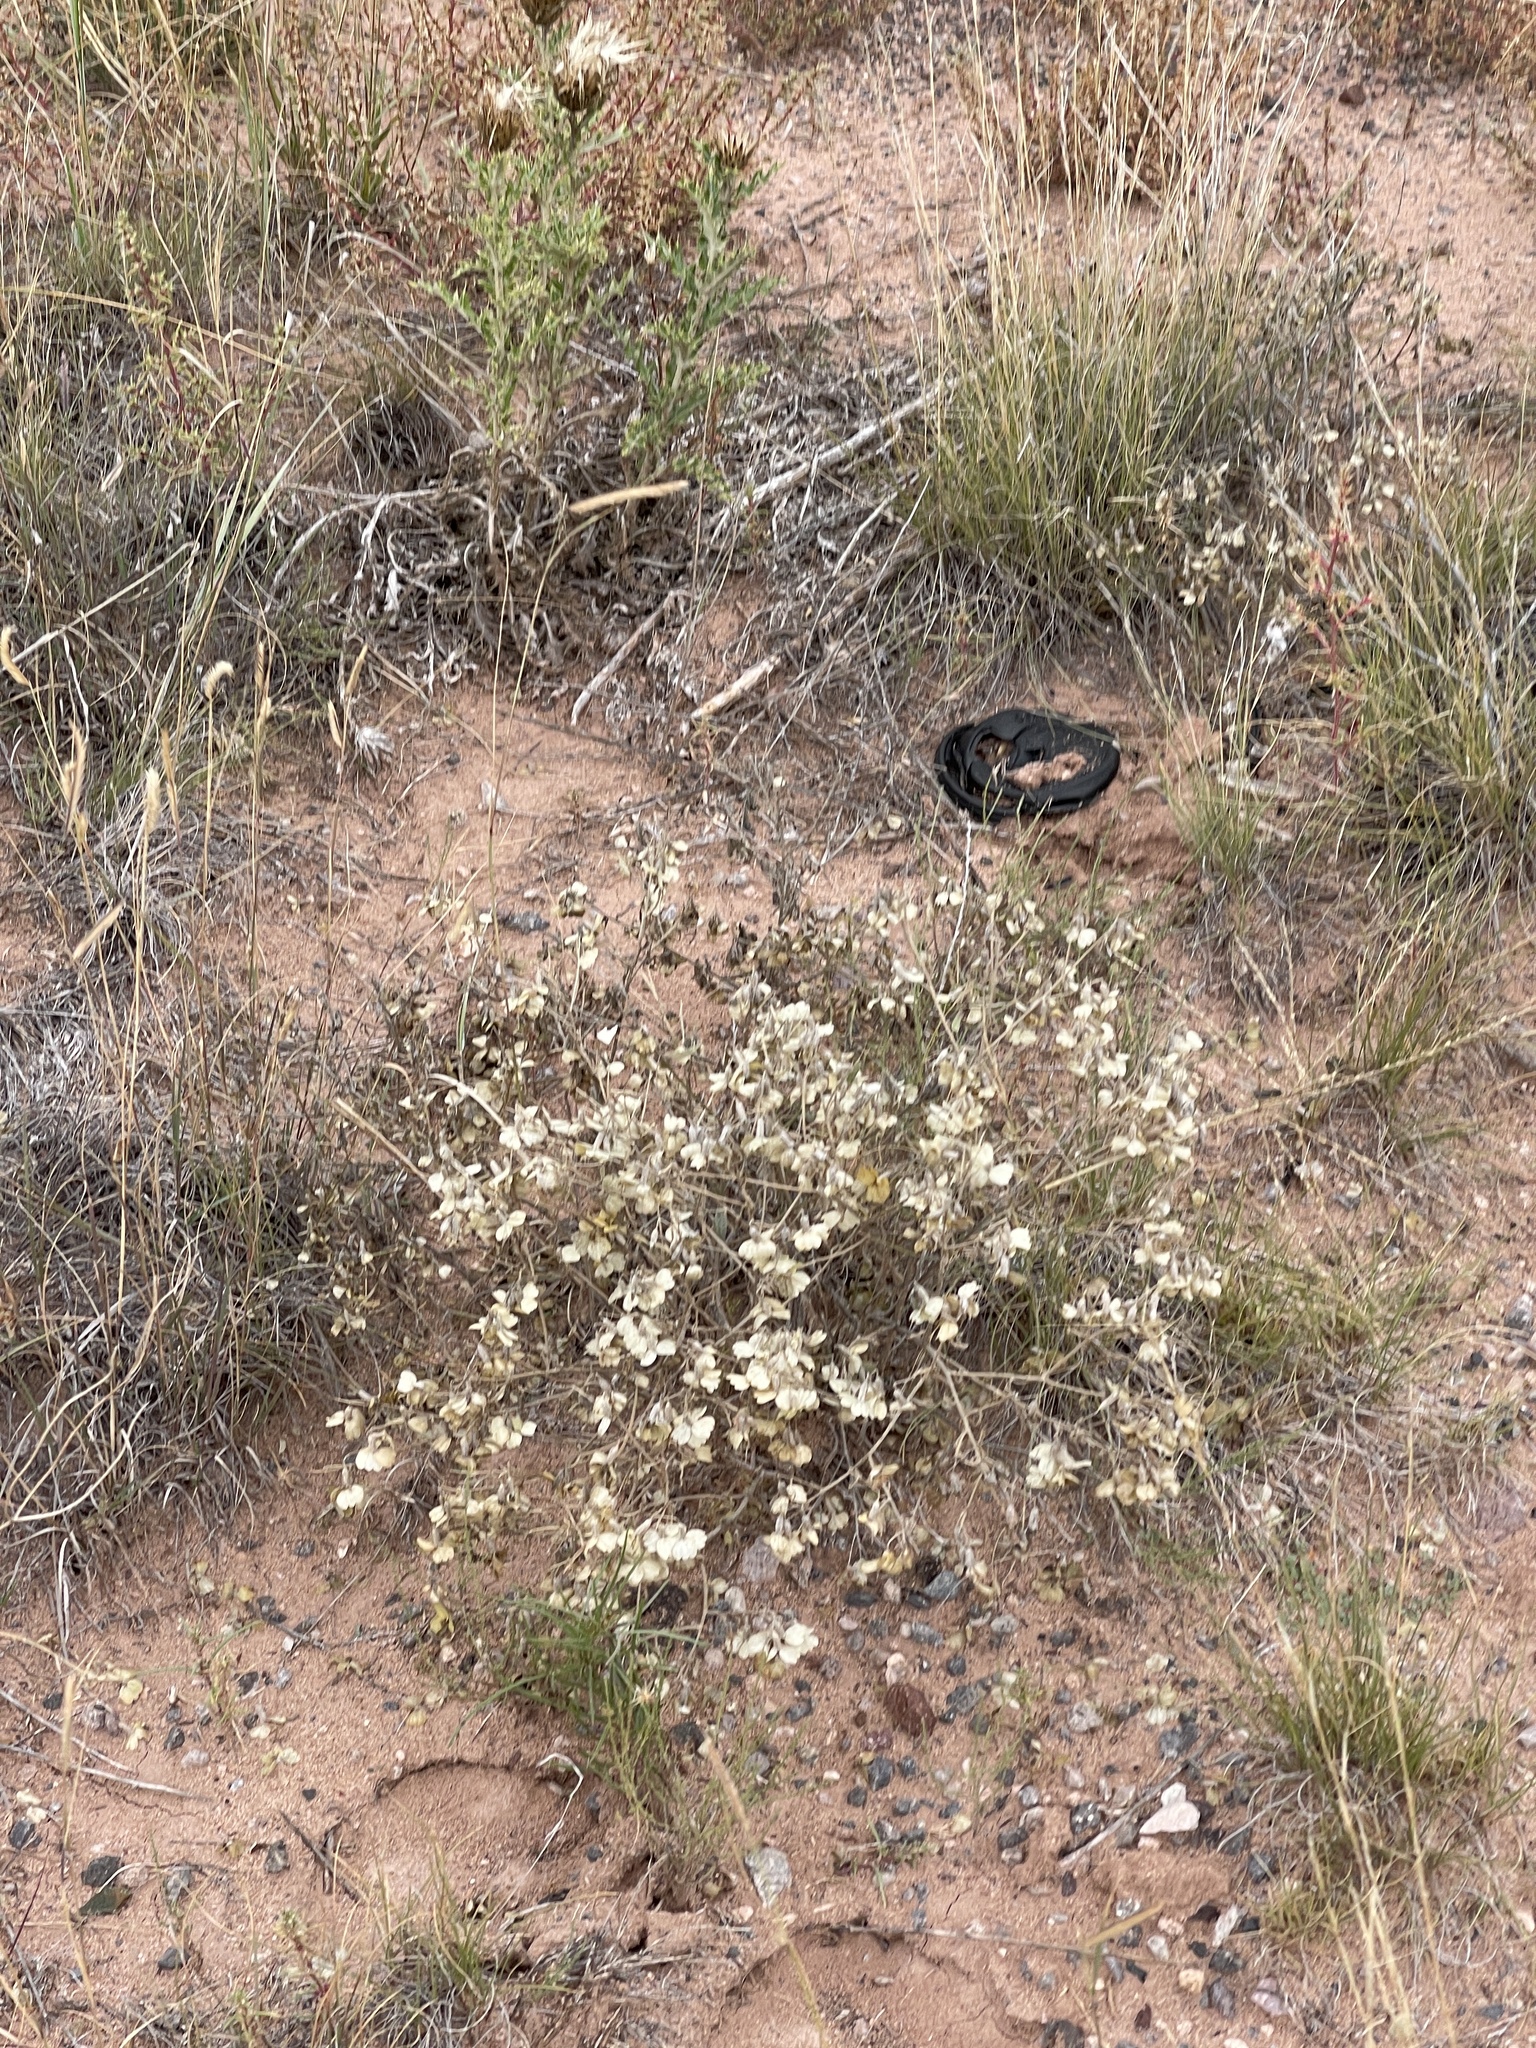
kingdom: Plantae
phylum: Tracheophyta
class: Magnoliopsida
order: Caryophyllales
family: Amaranthaceae
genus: Atriplex
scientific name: Atriplex canescens
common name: Four-wing saltbush
